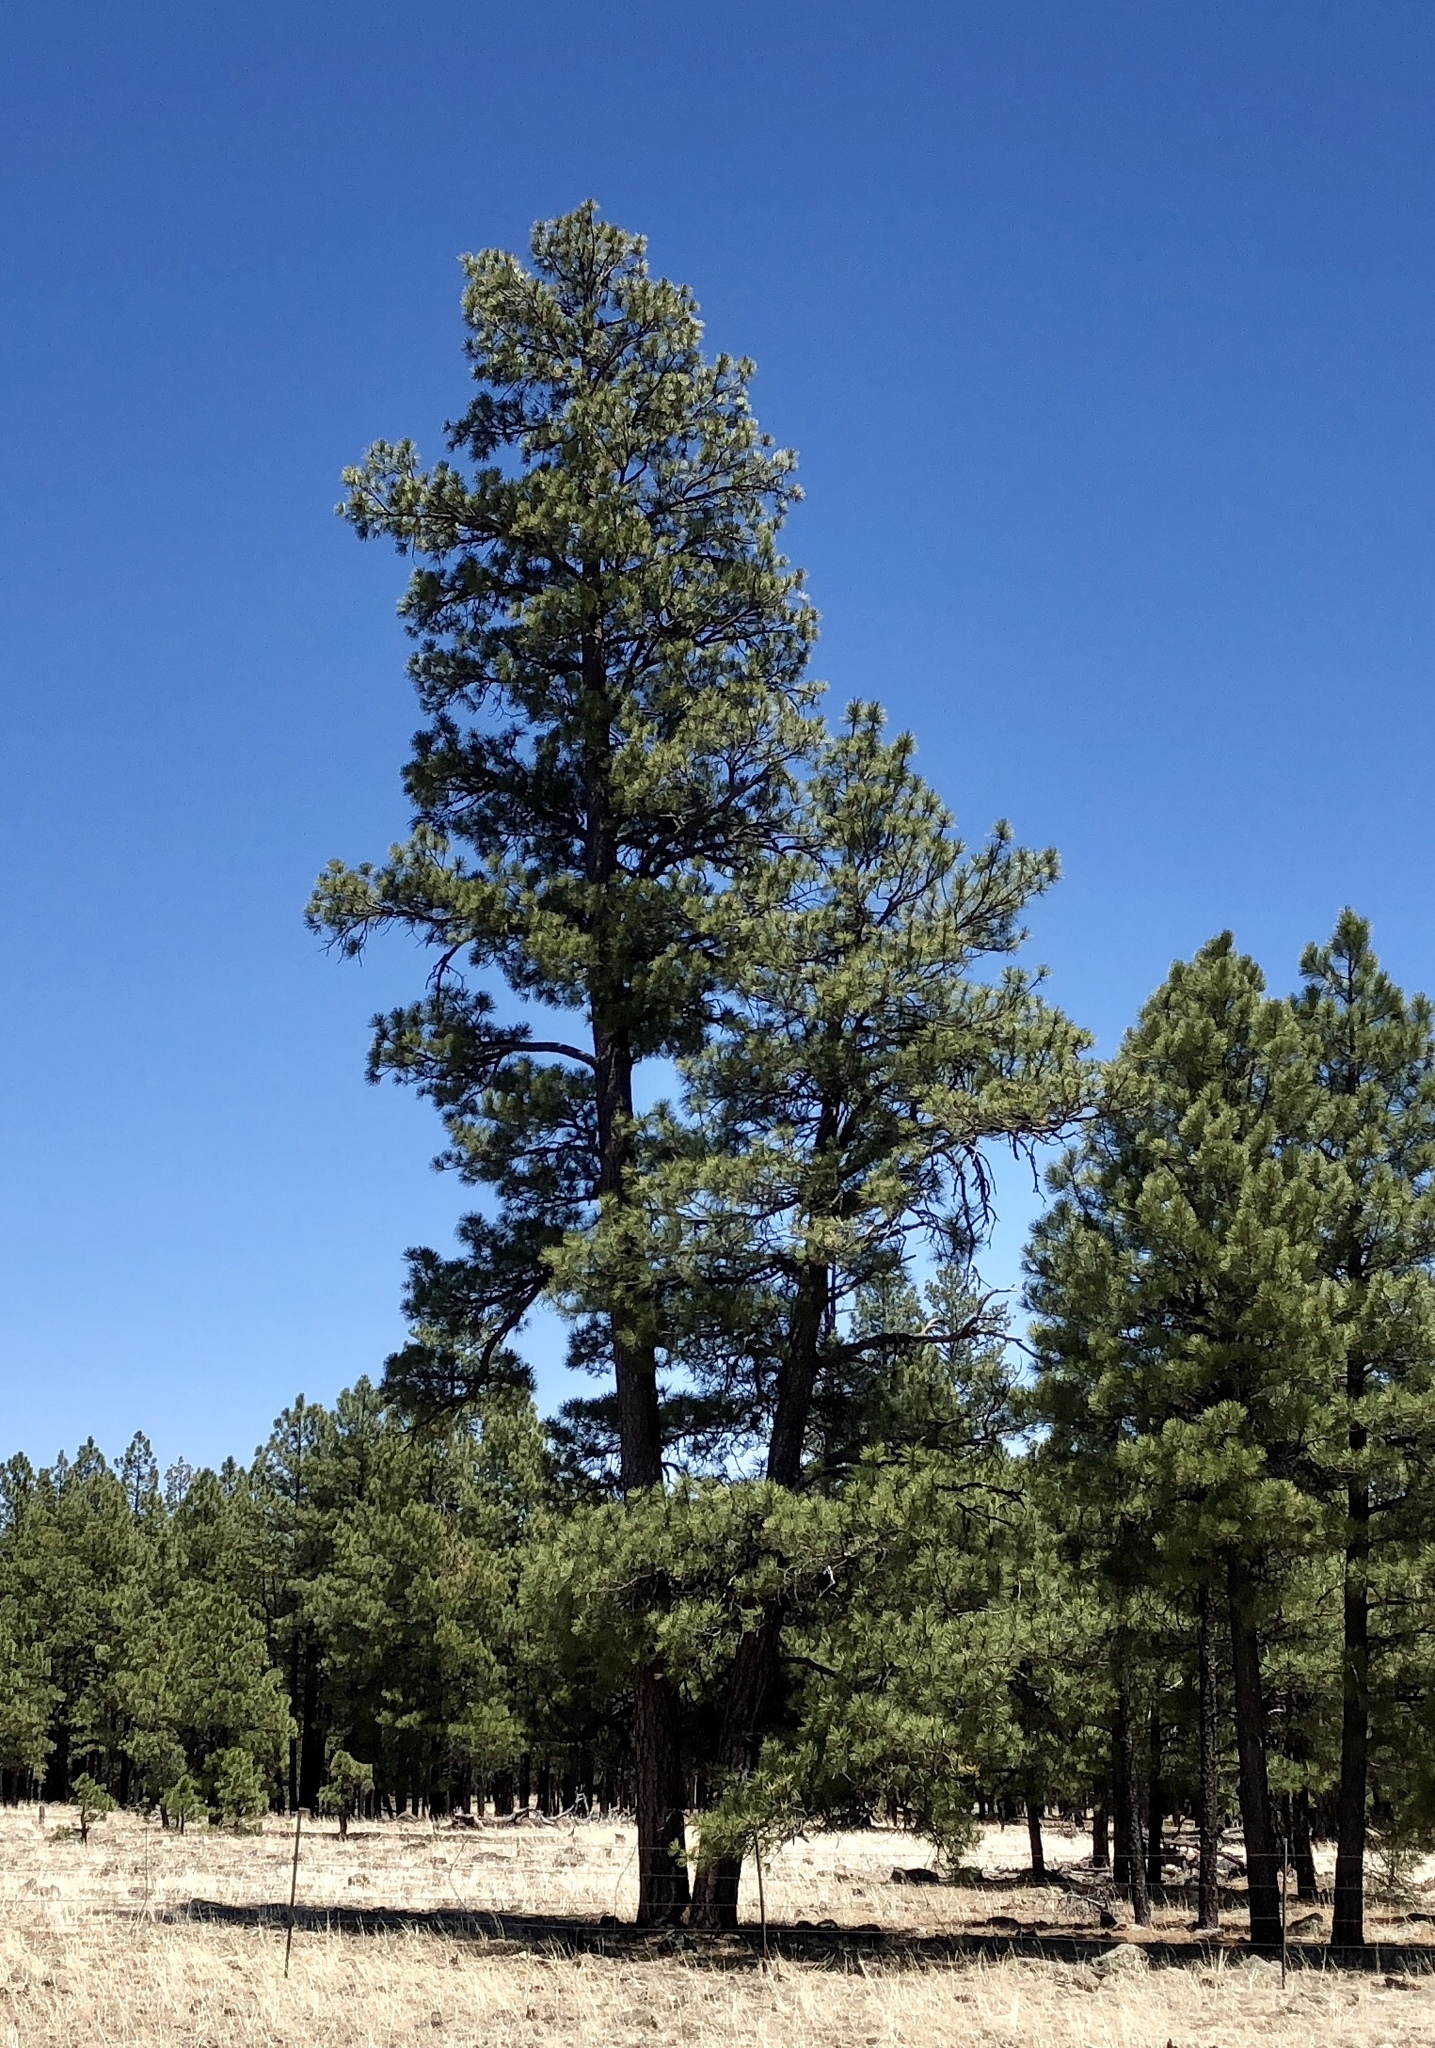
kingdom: Plantae
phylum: Tracheophyta
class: Pinopsida
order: Pinales
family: Pinaceae
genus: Pinus
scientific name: Pinus ponderosa
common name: Western yellow-pine
